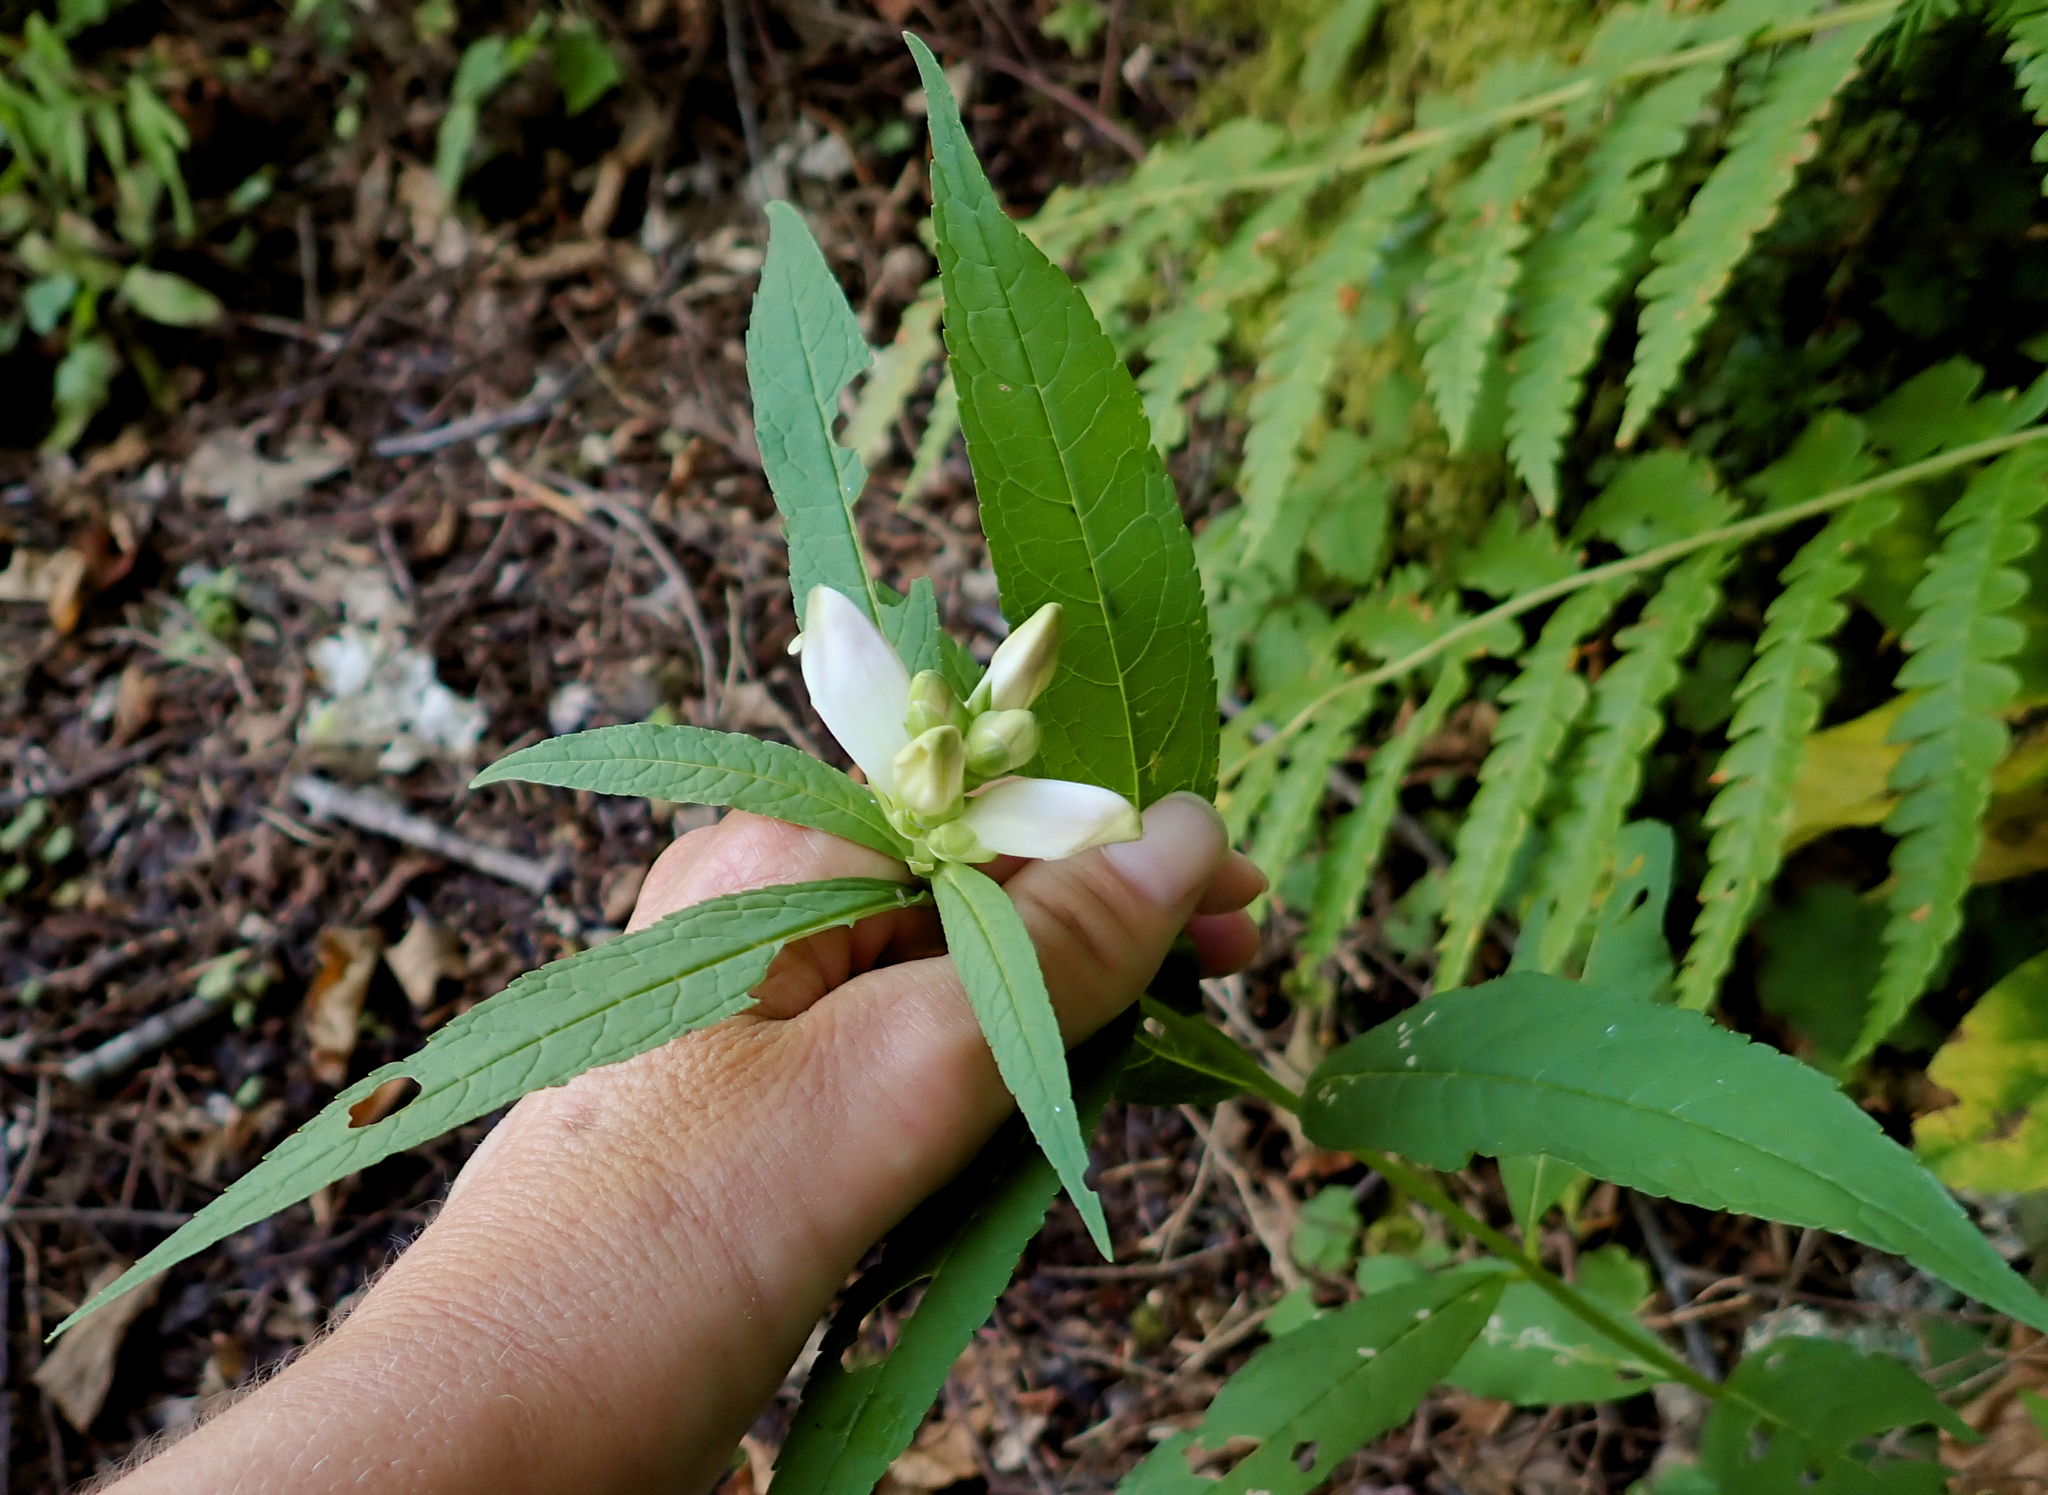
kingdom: Plantae
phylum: Tracheophyta
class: Magnoliopsida
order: Lamiales
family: Plantaginaceae
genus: Chelone
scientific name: Chelone glabra
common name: Snakehead
